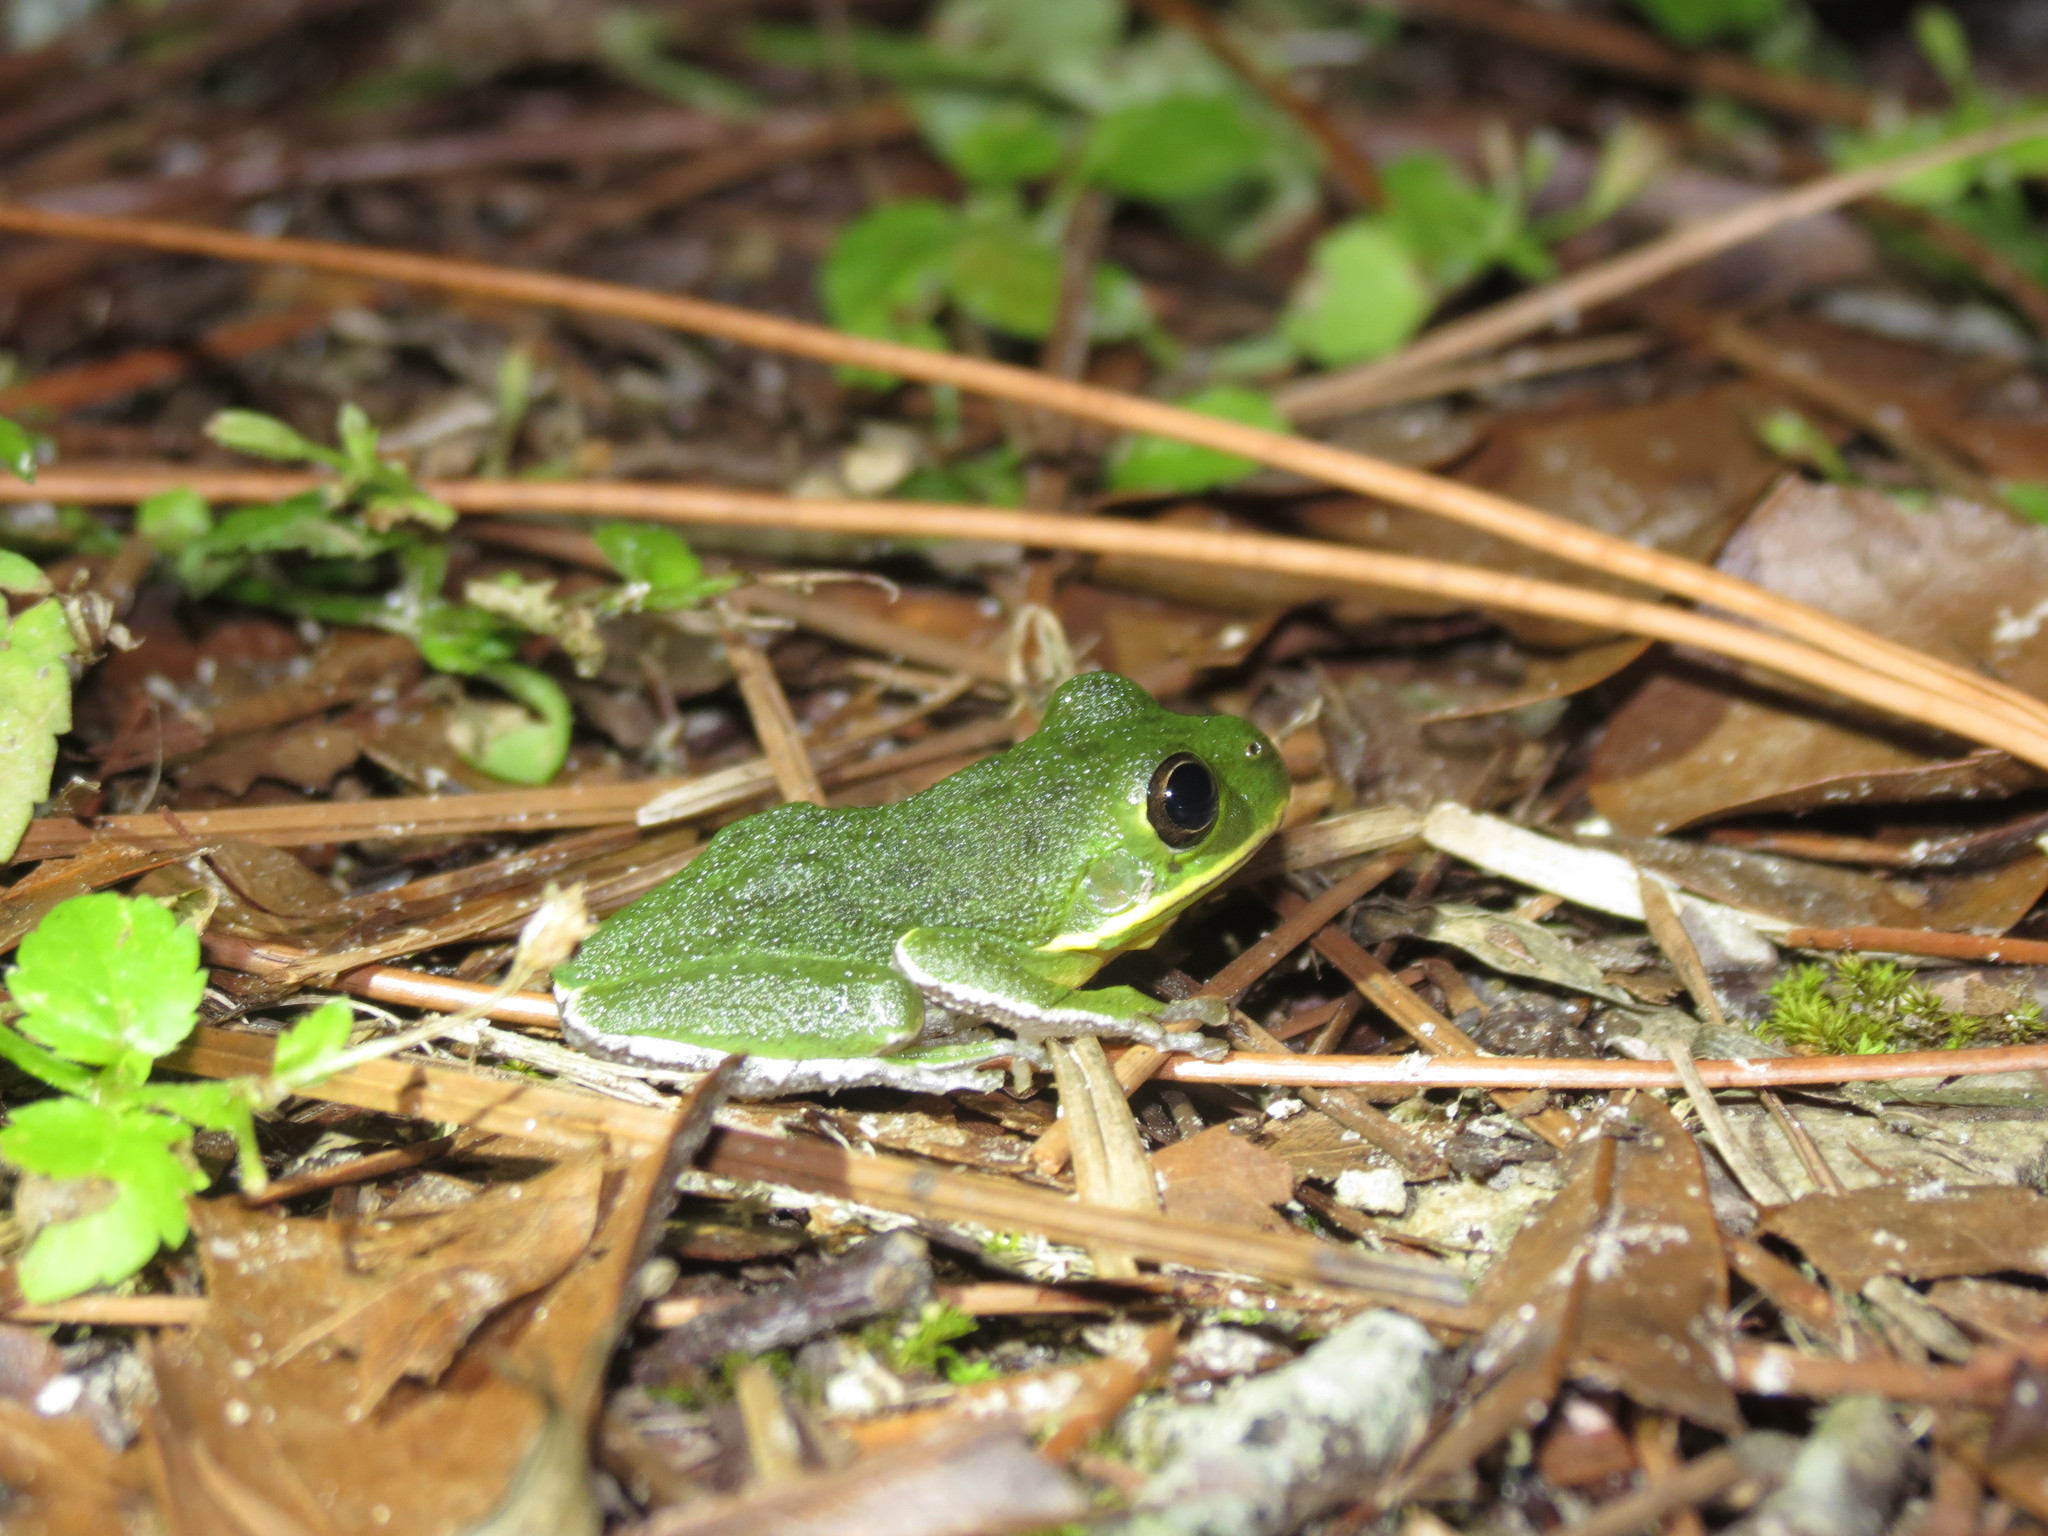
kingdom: Animalia
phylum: Chordata
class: Amphibia
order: Anura
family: Hylidae
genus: Dryophytes
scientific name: Dryophytes gratiosus
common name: Barking treefrog
